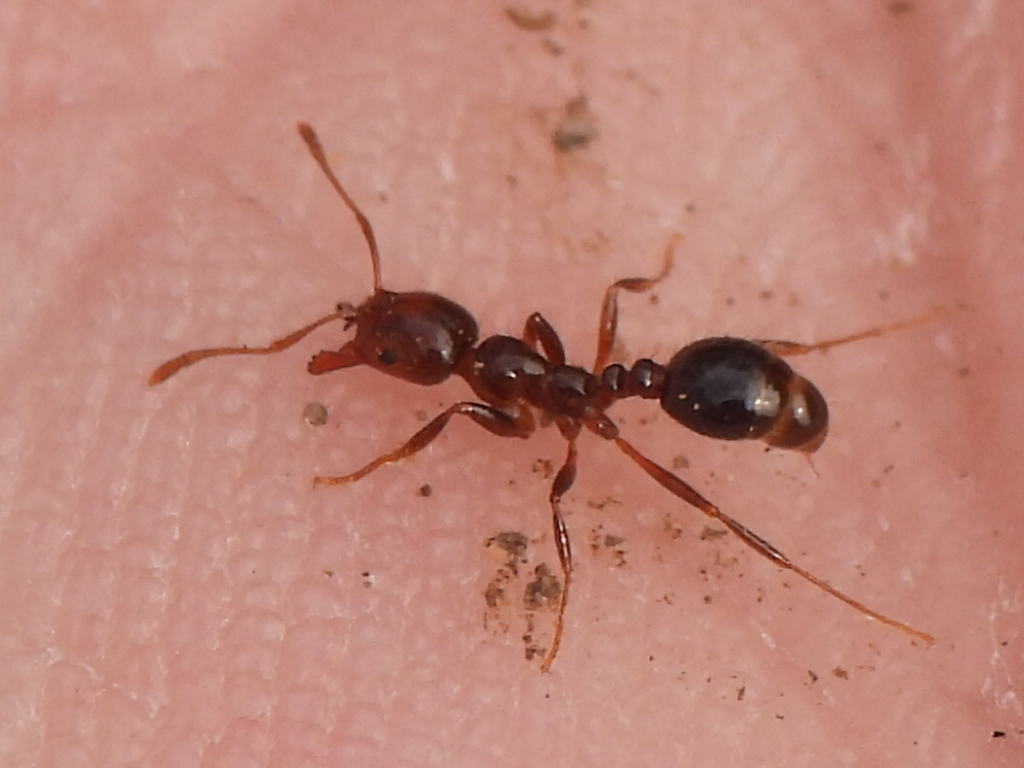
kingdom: Animalia
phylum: Arthropoda
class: Insecta
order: Hymenoptera
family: Formicidae
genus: Solenopsis
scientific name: Solenopsis invicta
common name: Red imported fire ant
